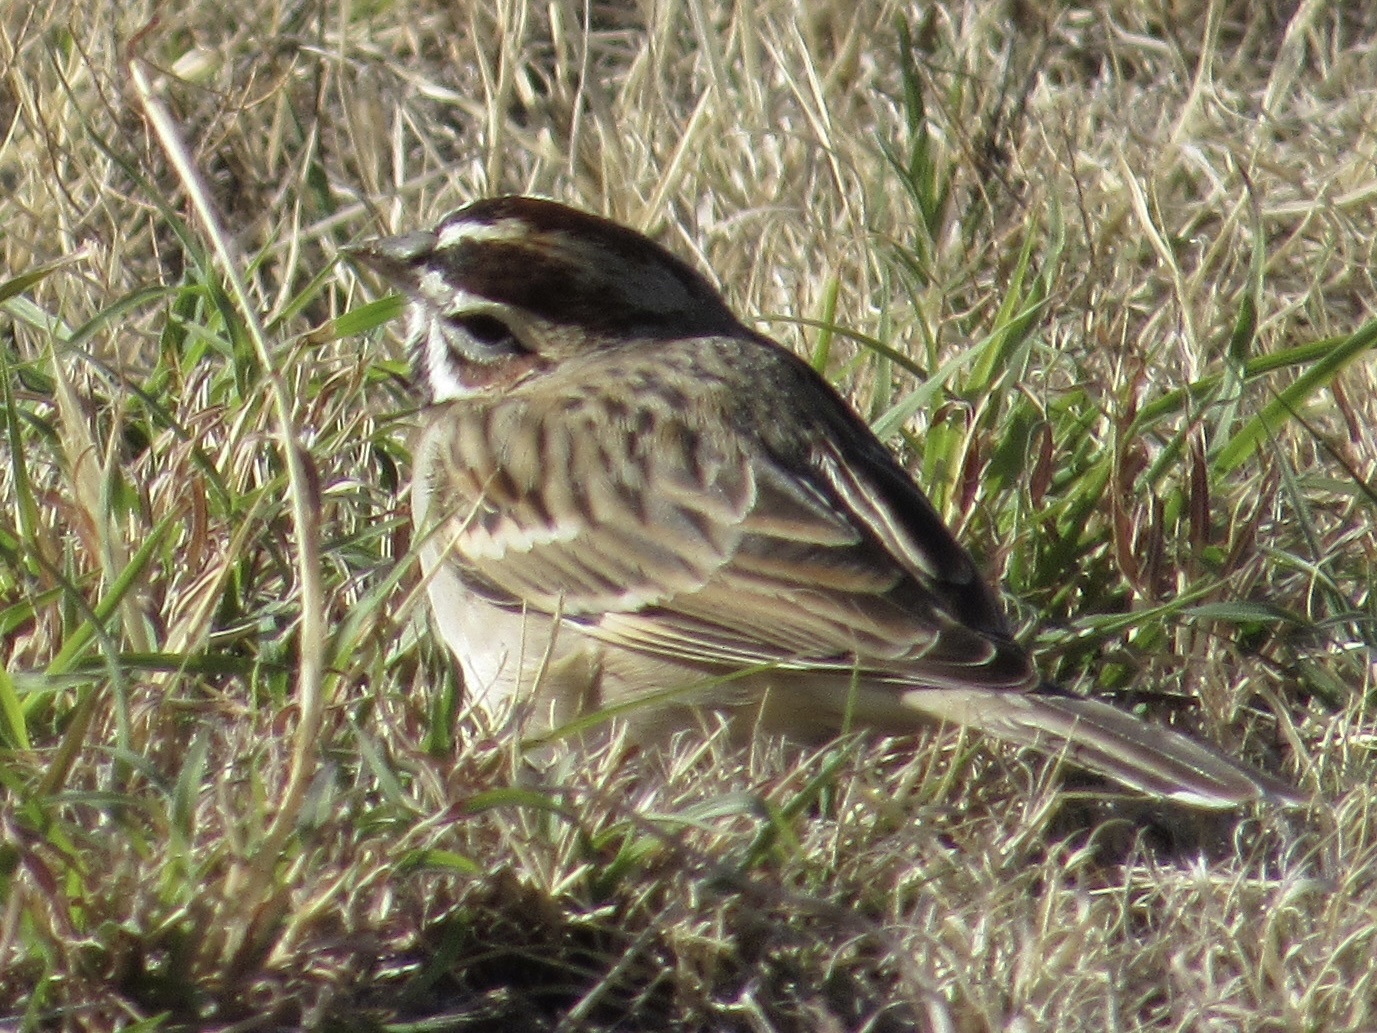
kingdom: Animalia
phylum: Chordata
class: Aves
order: Passeriformes
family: Passerellidae
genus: Chondestes
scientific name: Chondestes grammacus
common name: Lark sparrow
